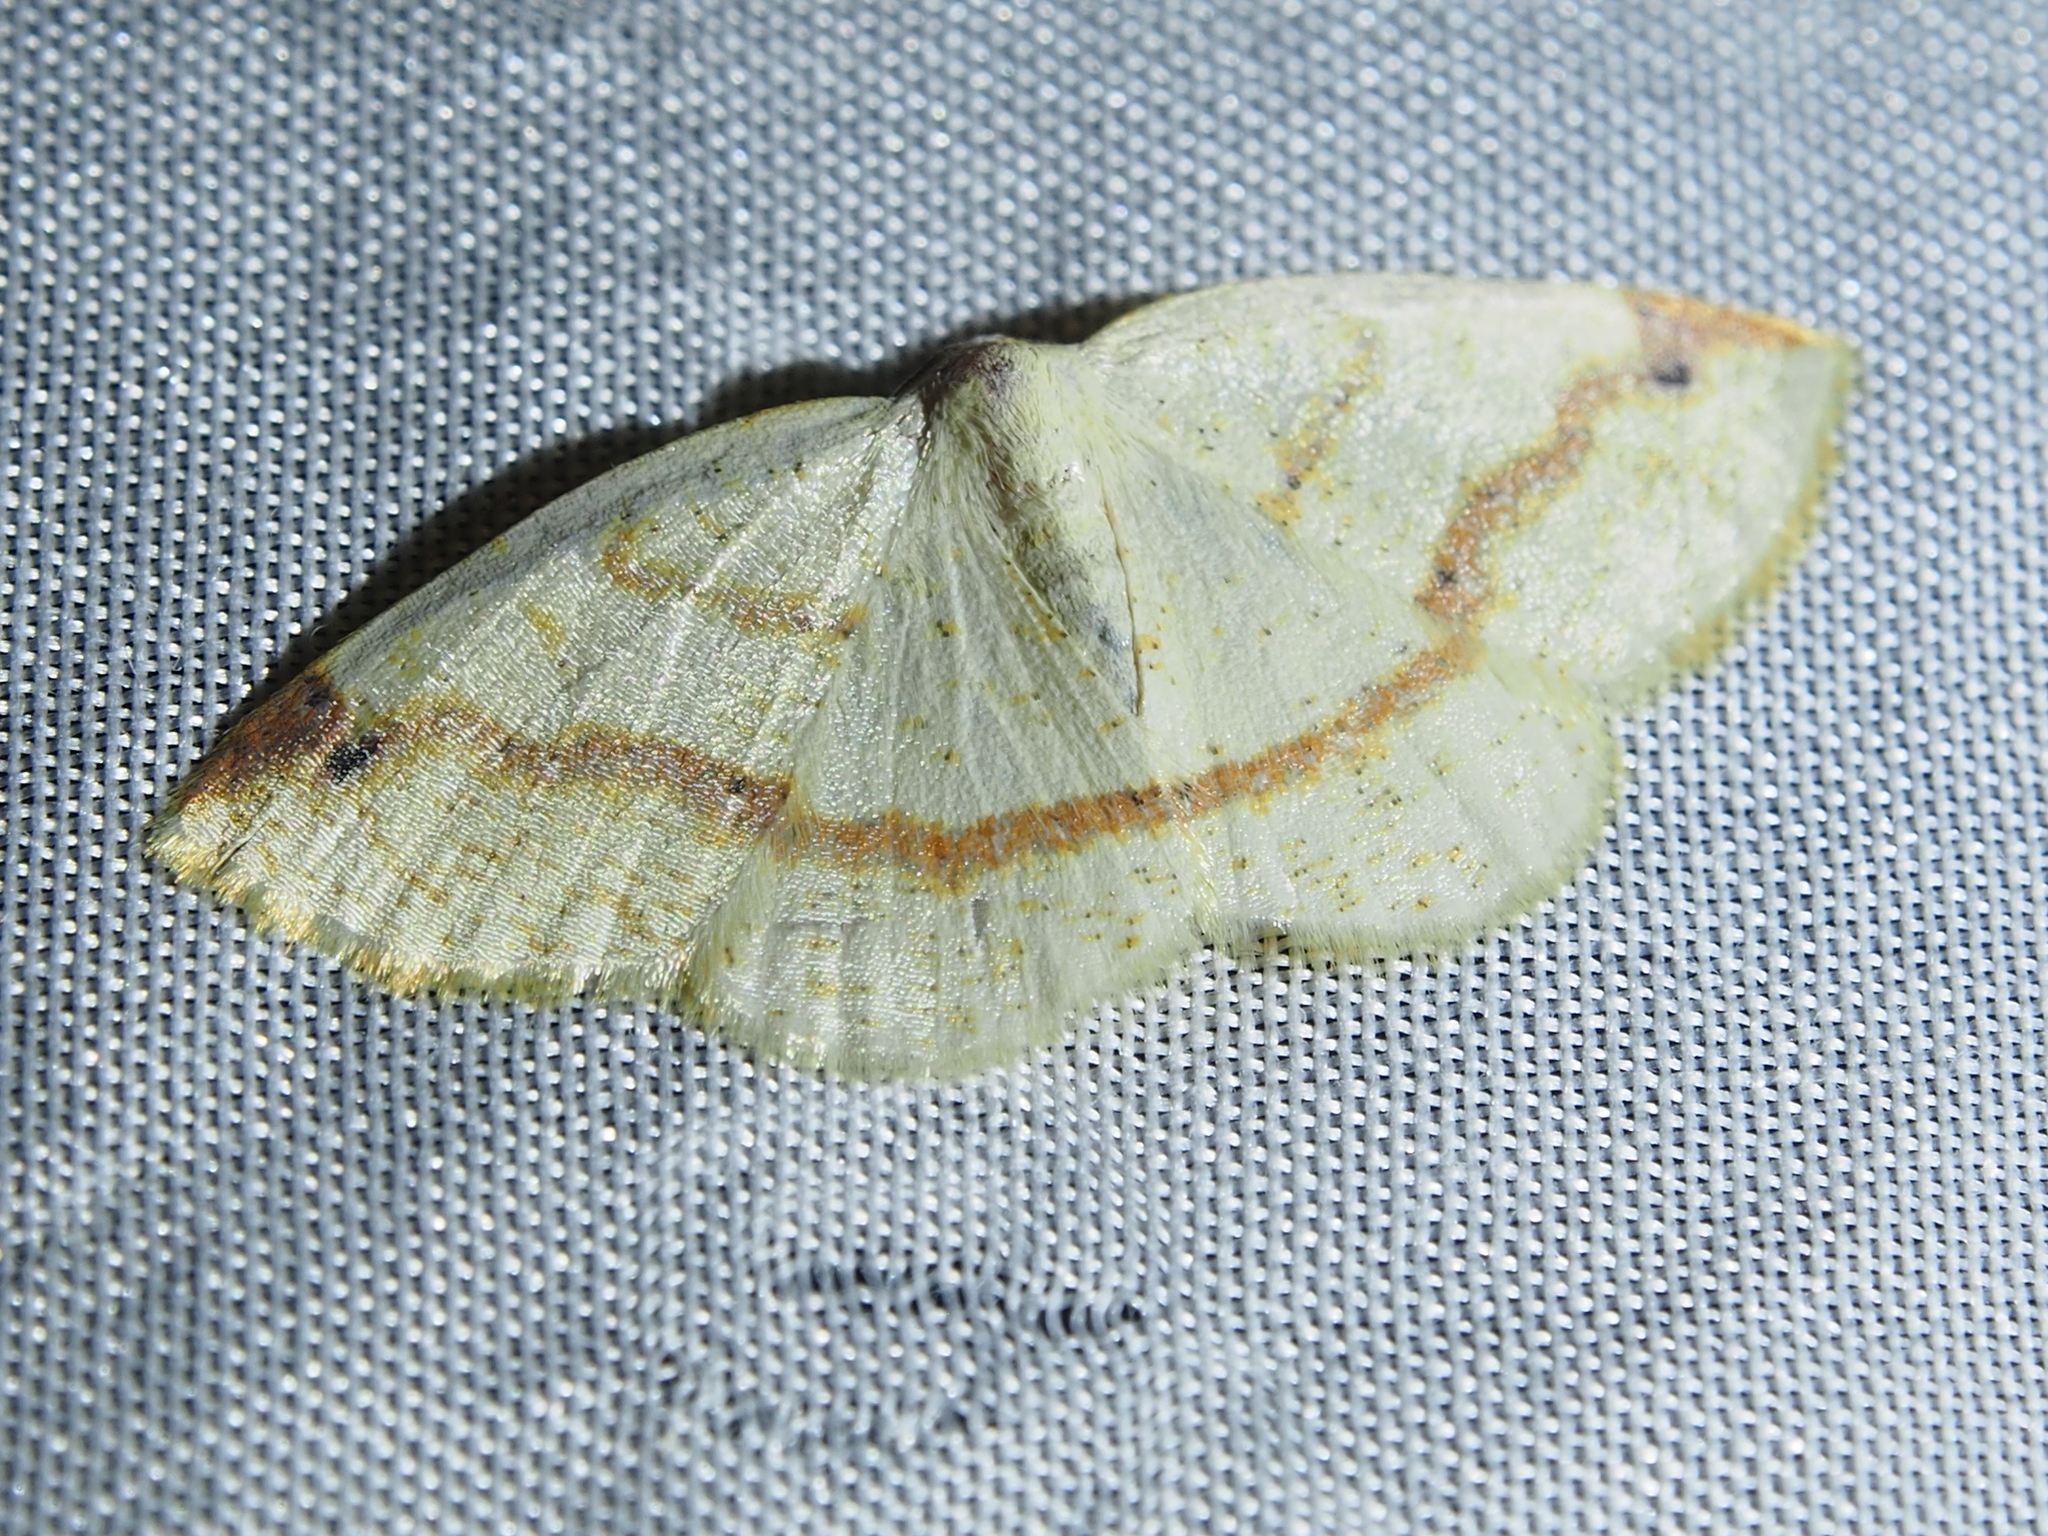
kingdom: Animalia
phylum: Arthropoda
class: Insecta
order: Lepidoptera
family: Geometridae
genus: Microxydia
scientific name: Microxydia orsitaria
